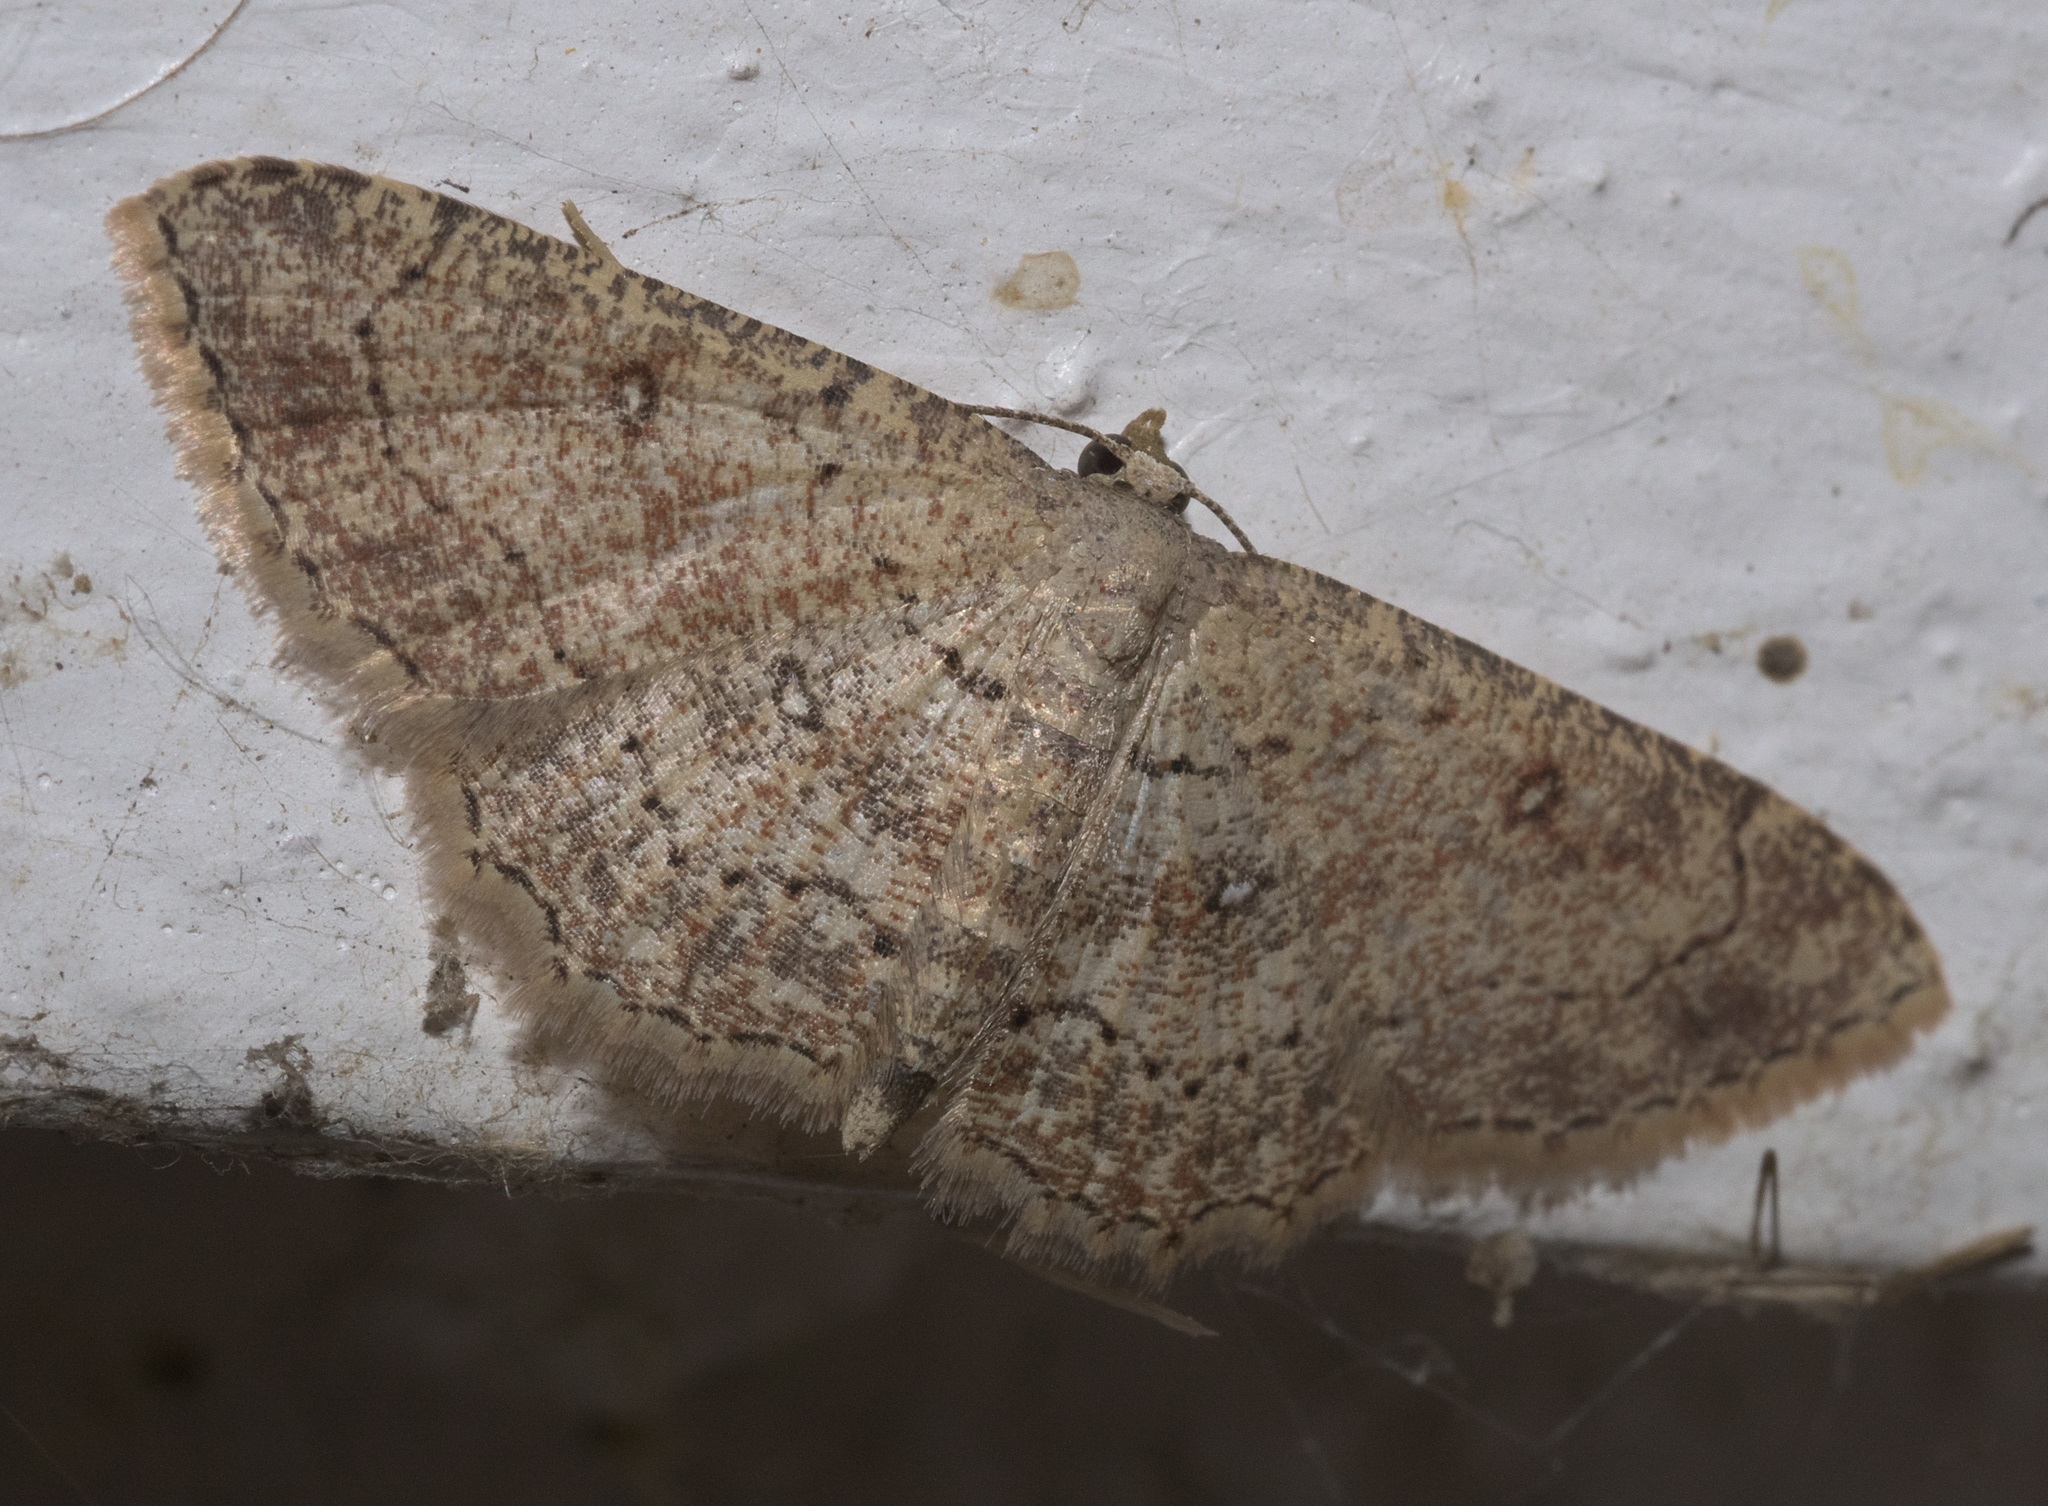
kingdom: Animalia
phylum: Arthropoda
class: Insecta
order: Lepidoptera
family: Geometridae
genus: Cyclophora
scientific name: Cyclophora nanaria
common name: Cankerworm
